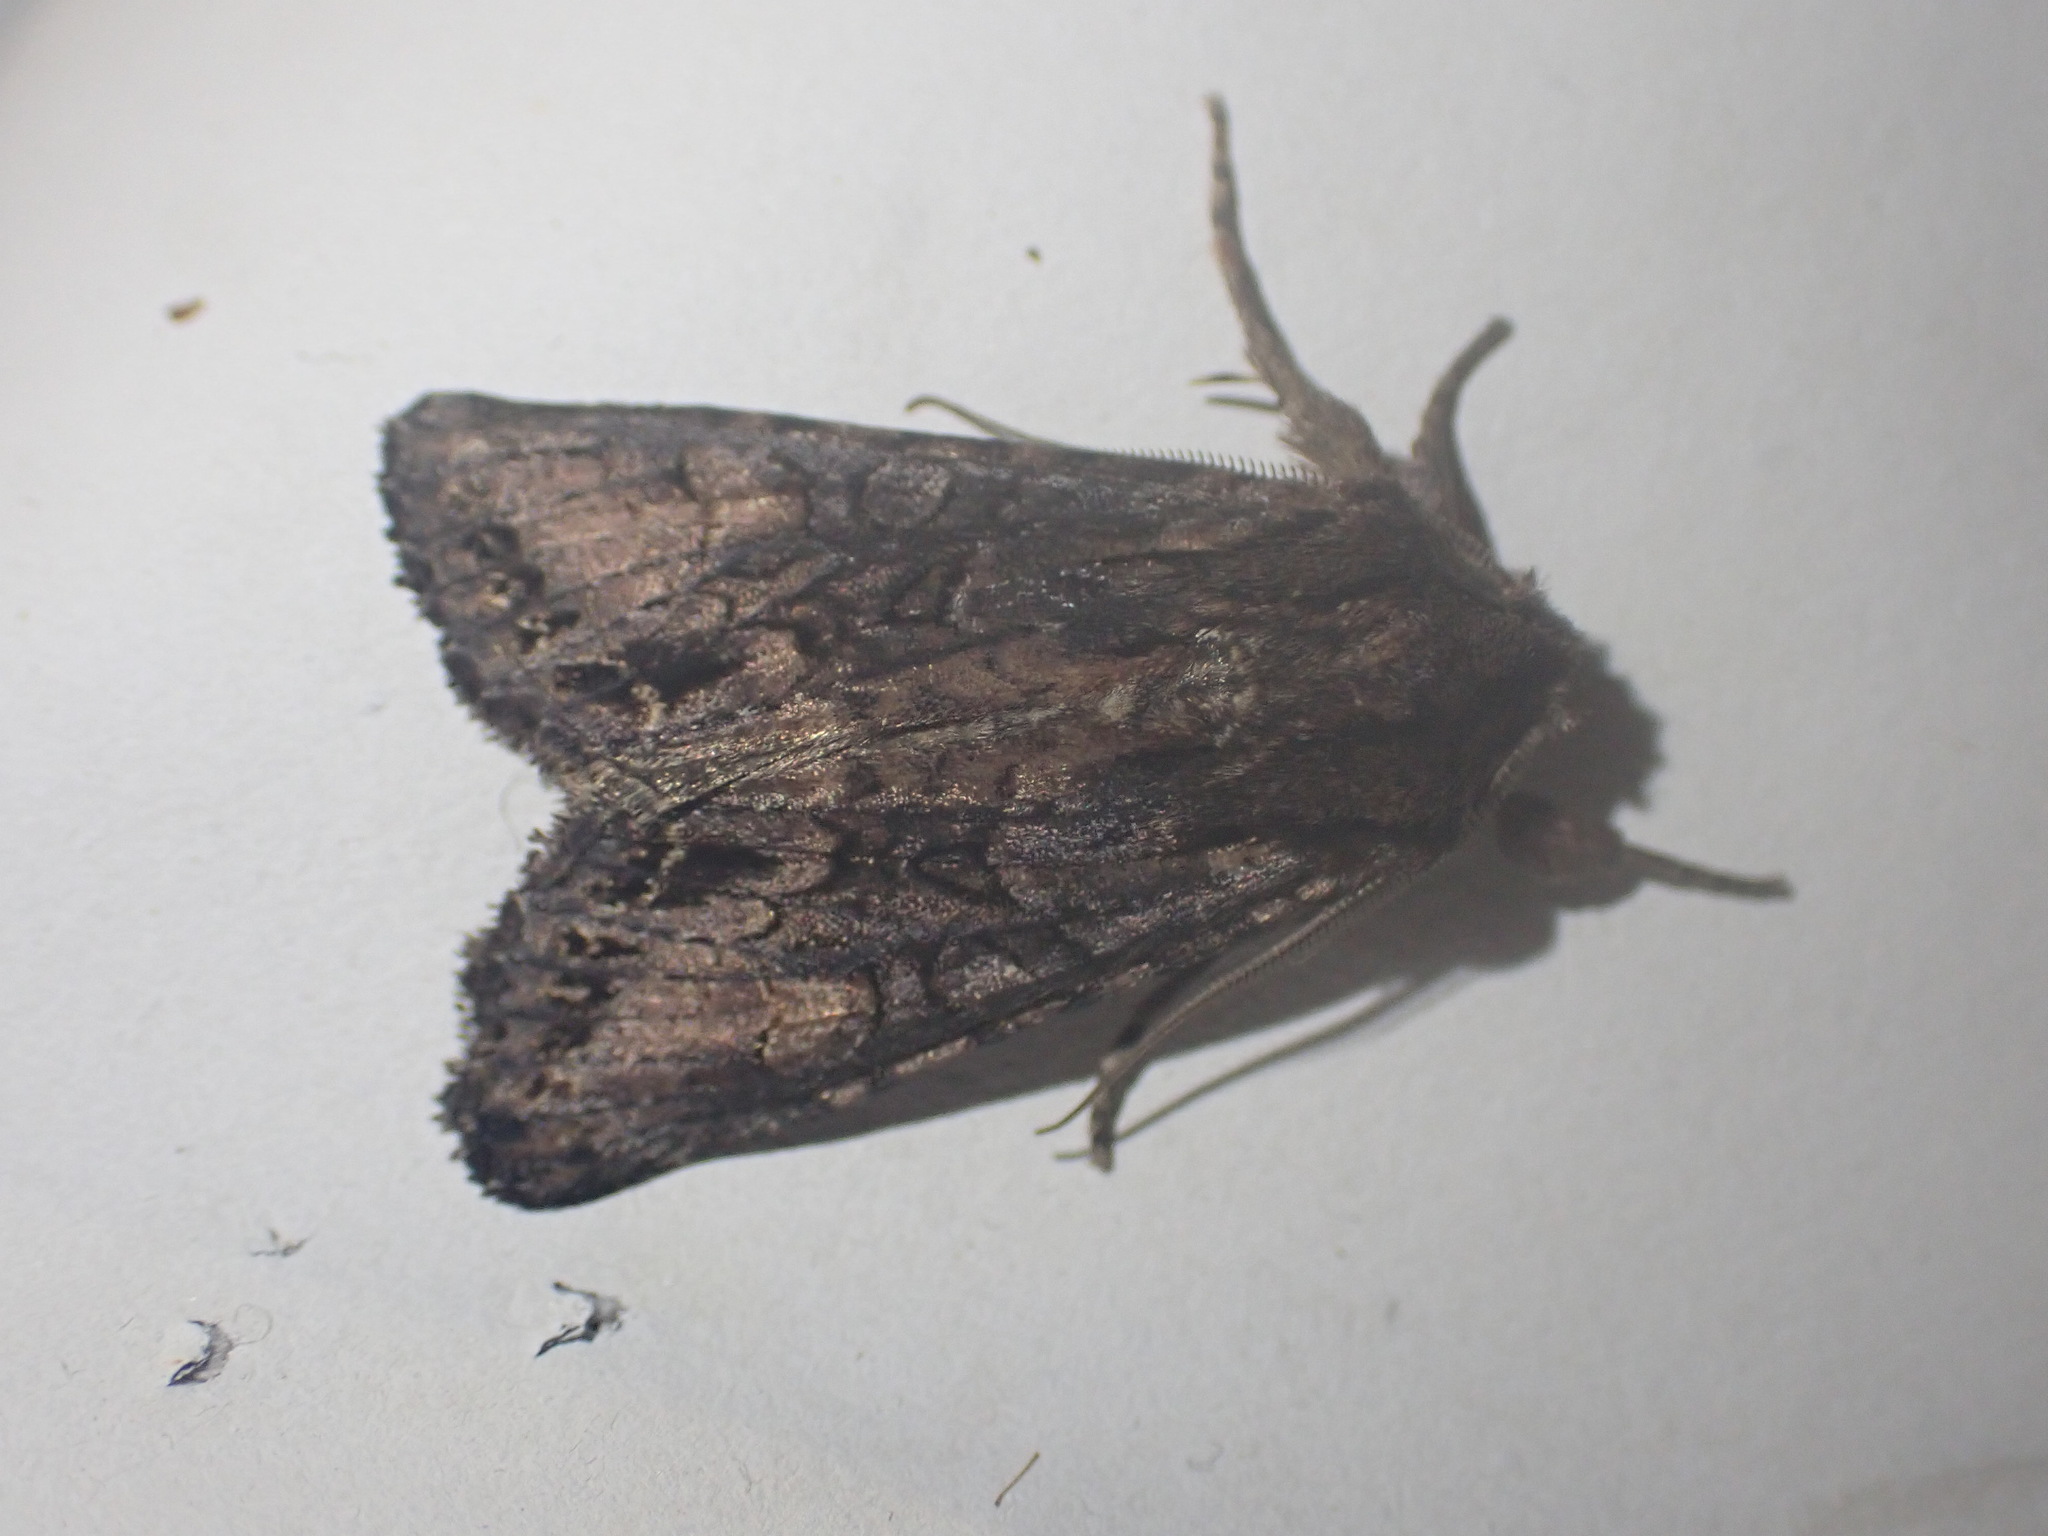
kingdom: Animalia
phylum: Arthropoda
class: Insecta
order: Lepidoptera
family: Noctuidae
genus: Ichneutica
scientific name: Ichneutica
